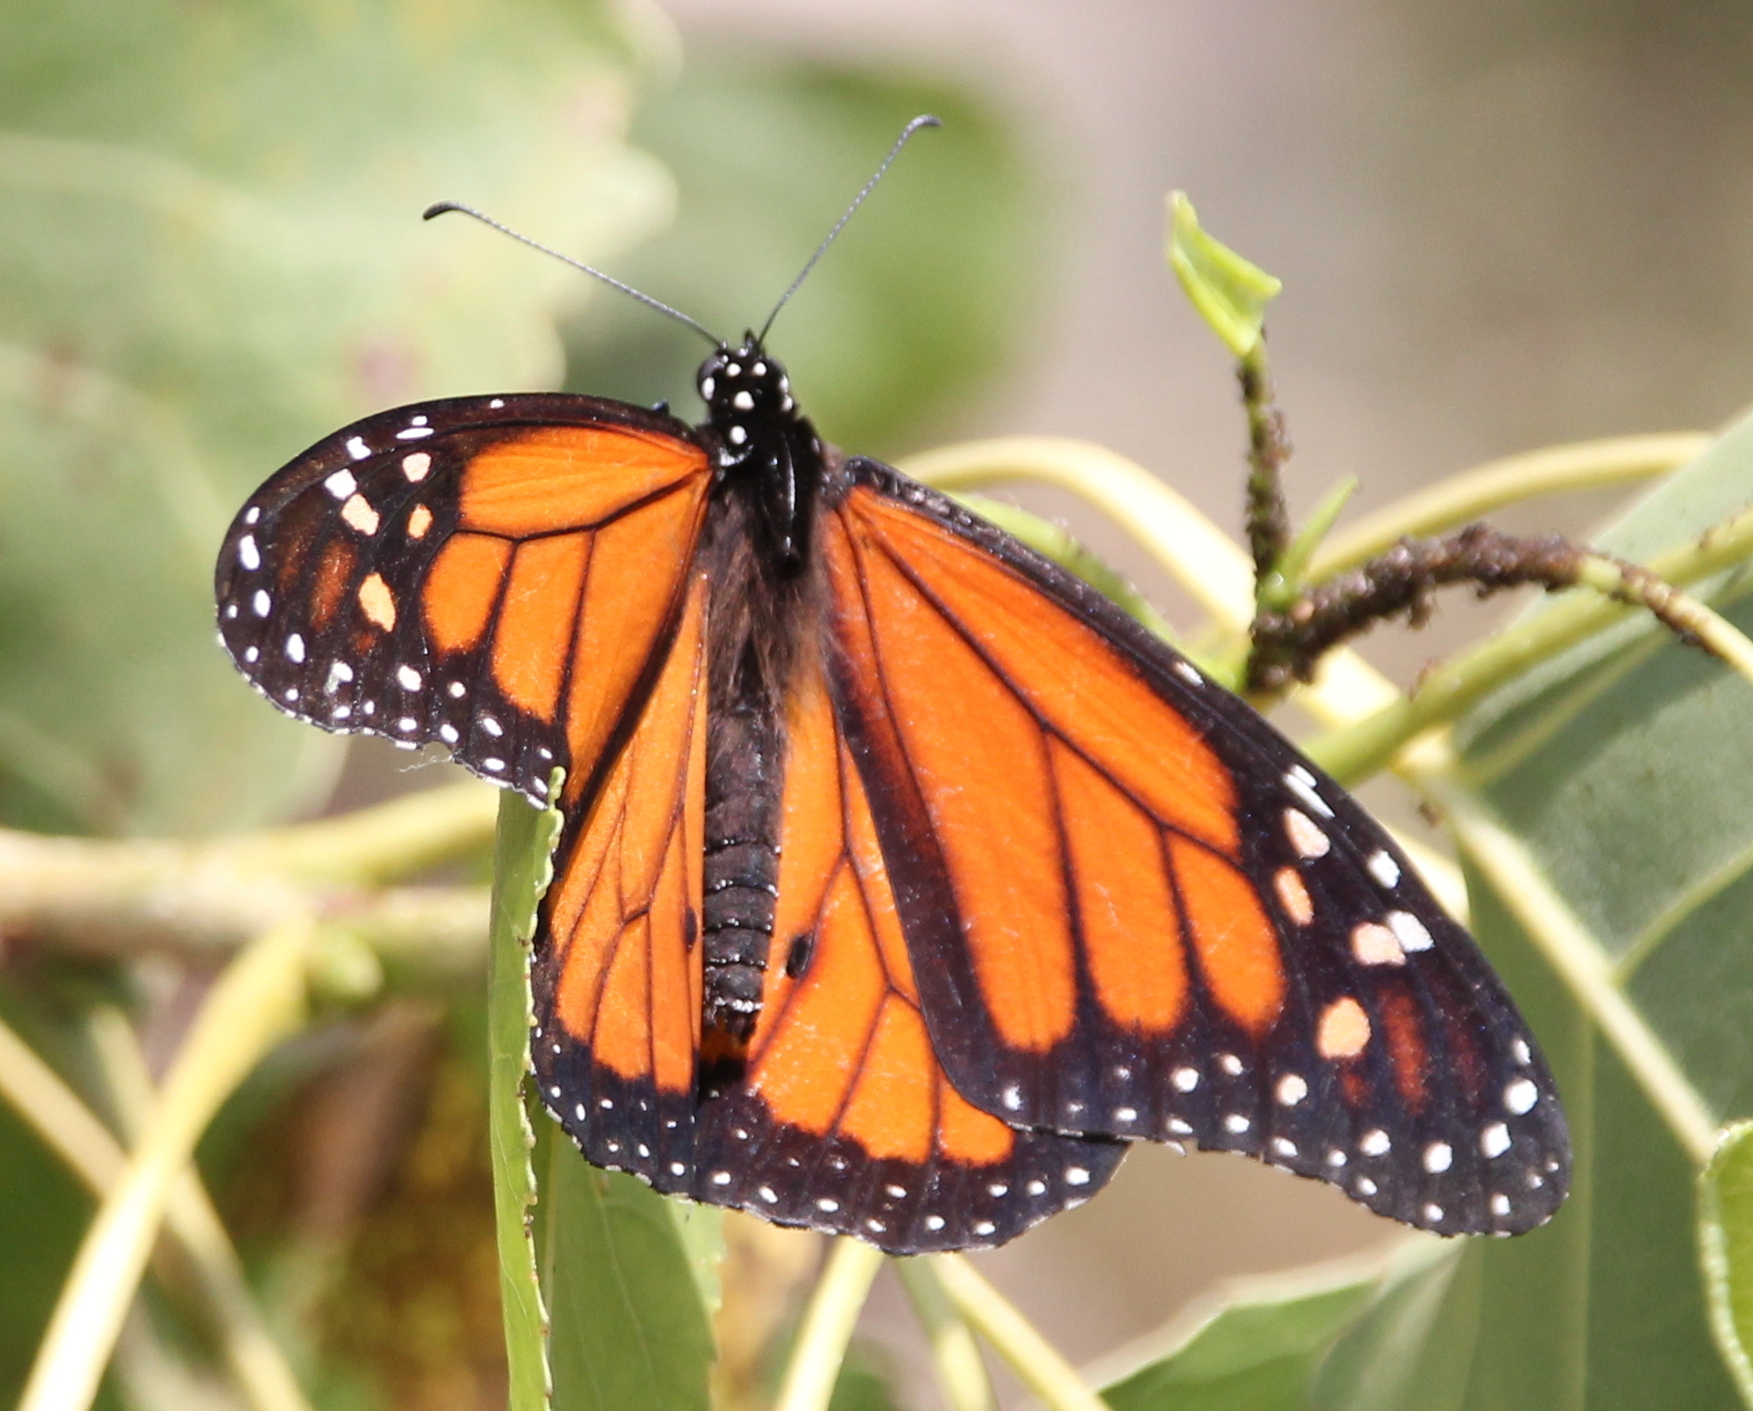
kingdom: Animalia
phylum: Arthropoda
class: Insecta
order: Lepidoptera
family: Nymphalidae
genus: Danaus
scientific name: Danaus plexippus
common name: Monarch
